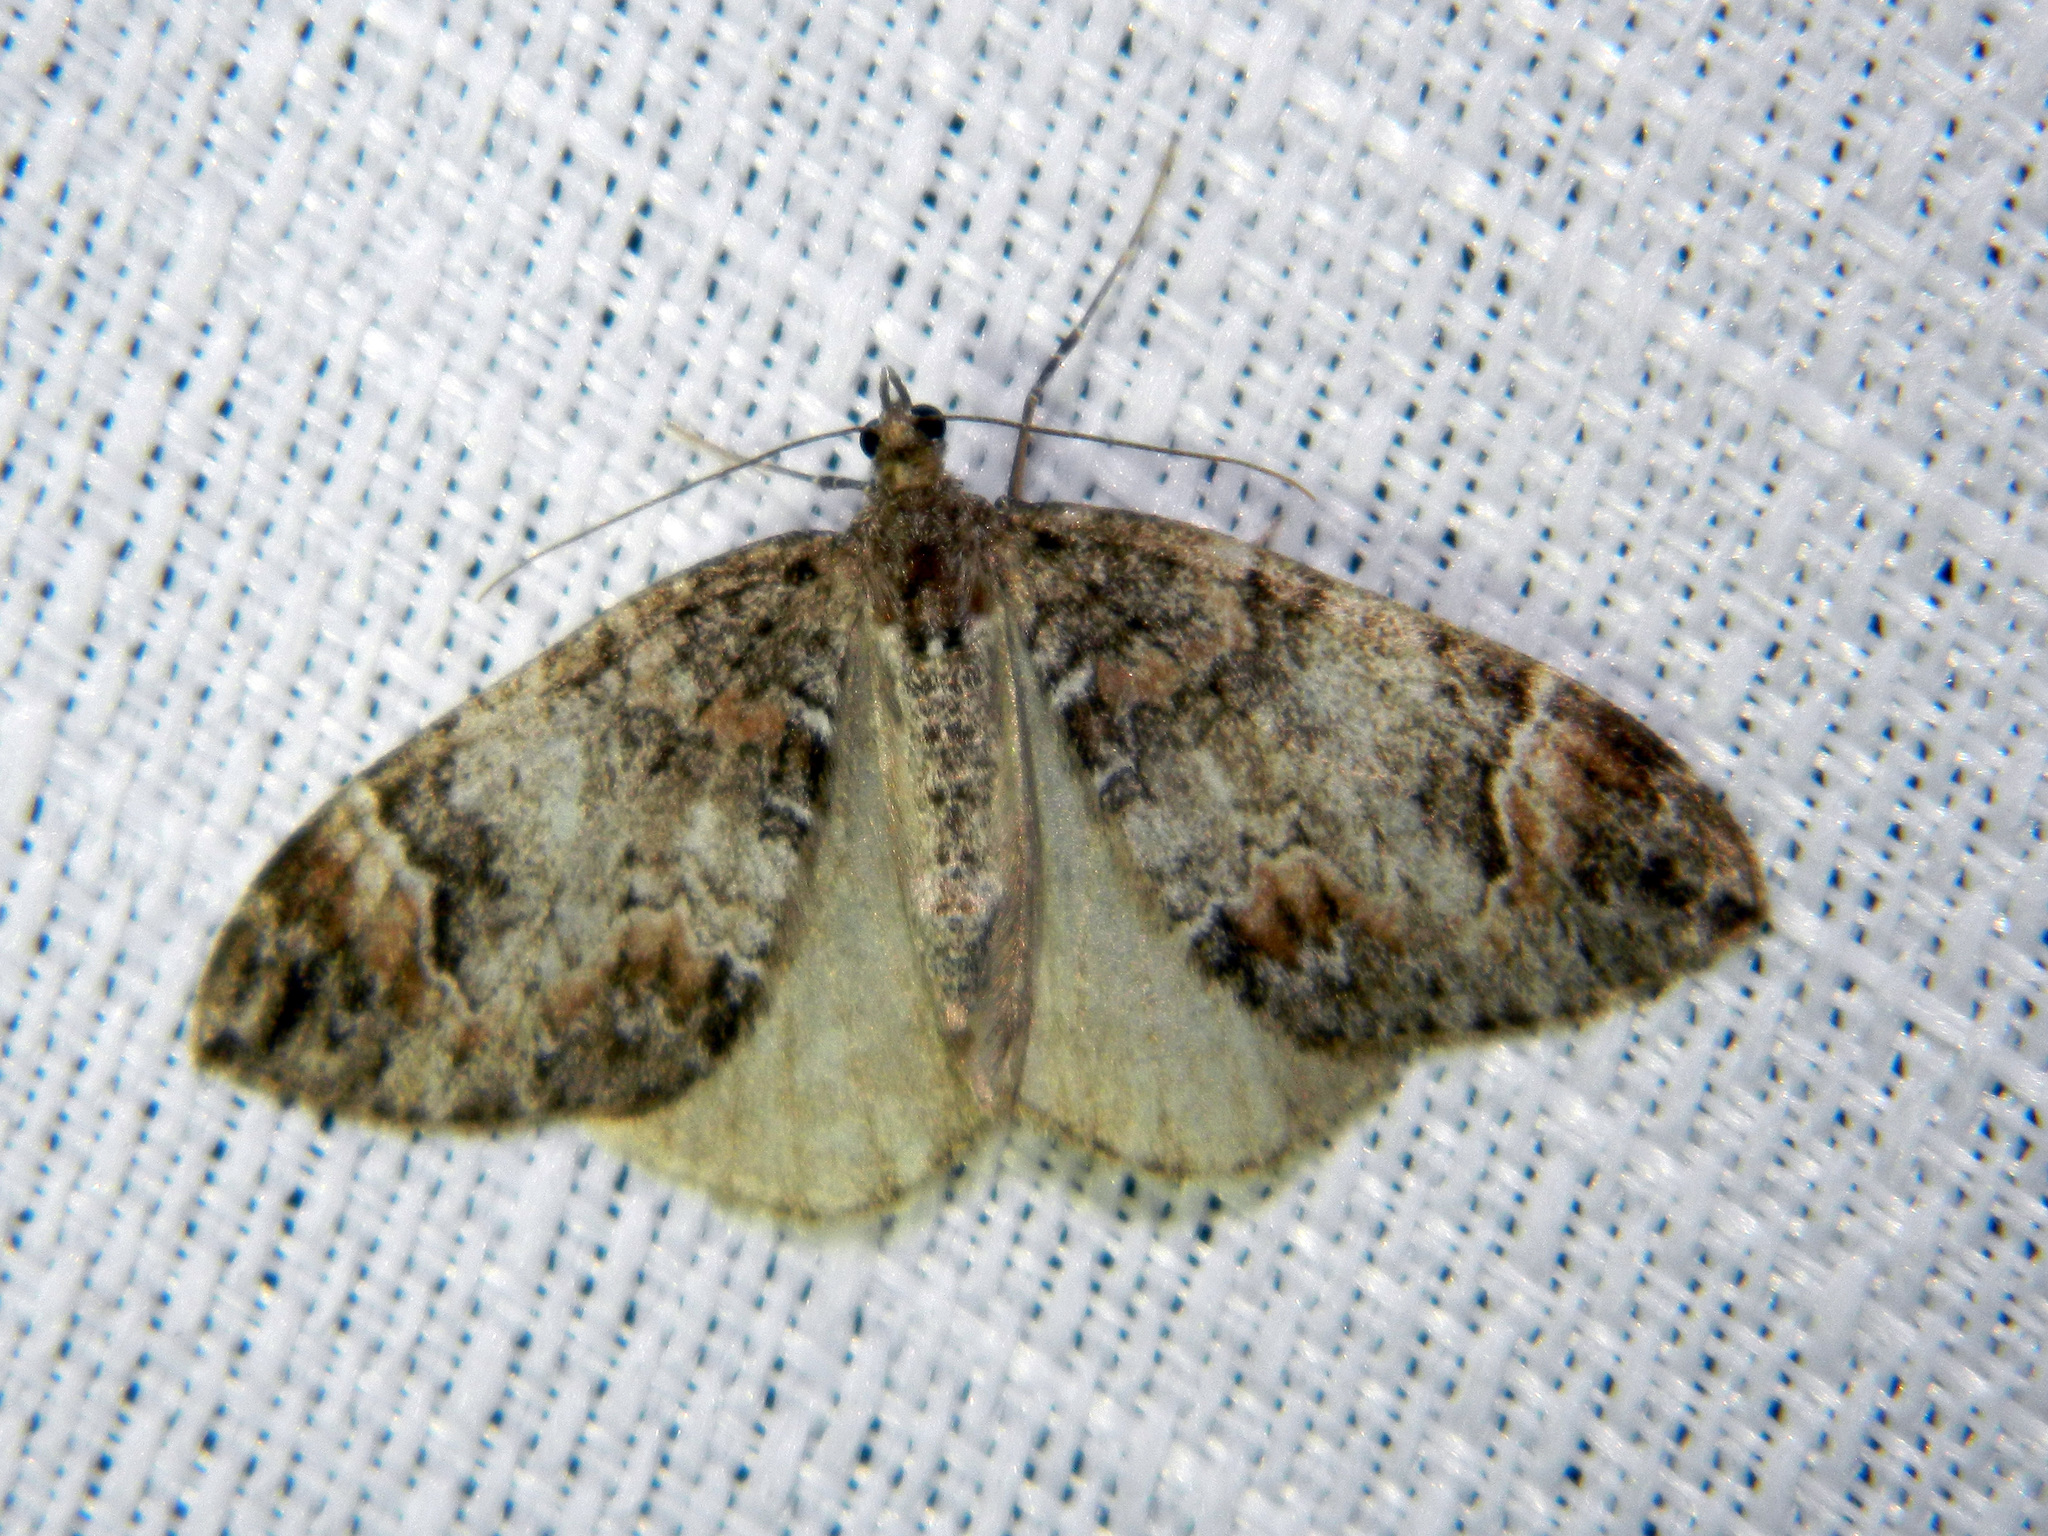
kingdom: Animalia
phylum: Arthropoda
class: Insecta
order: Lepidoptera
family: Geometridae
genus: Dysstroma
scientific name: Dysstroma citrata
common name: Dark marbled carpet
